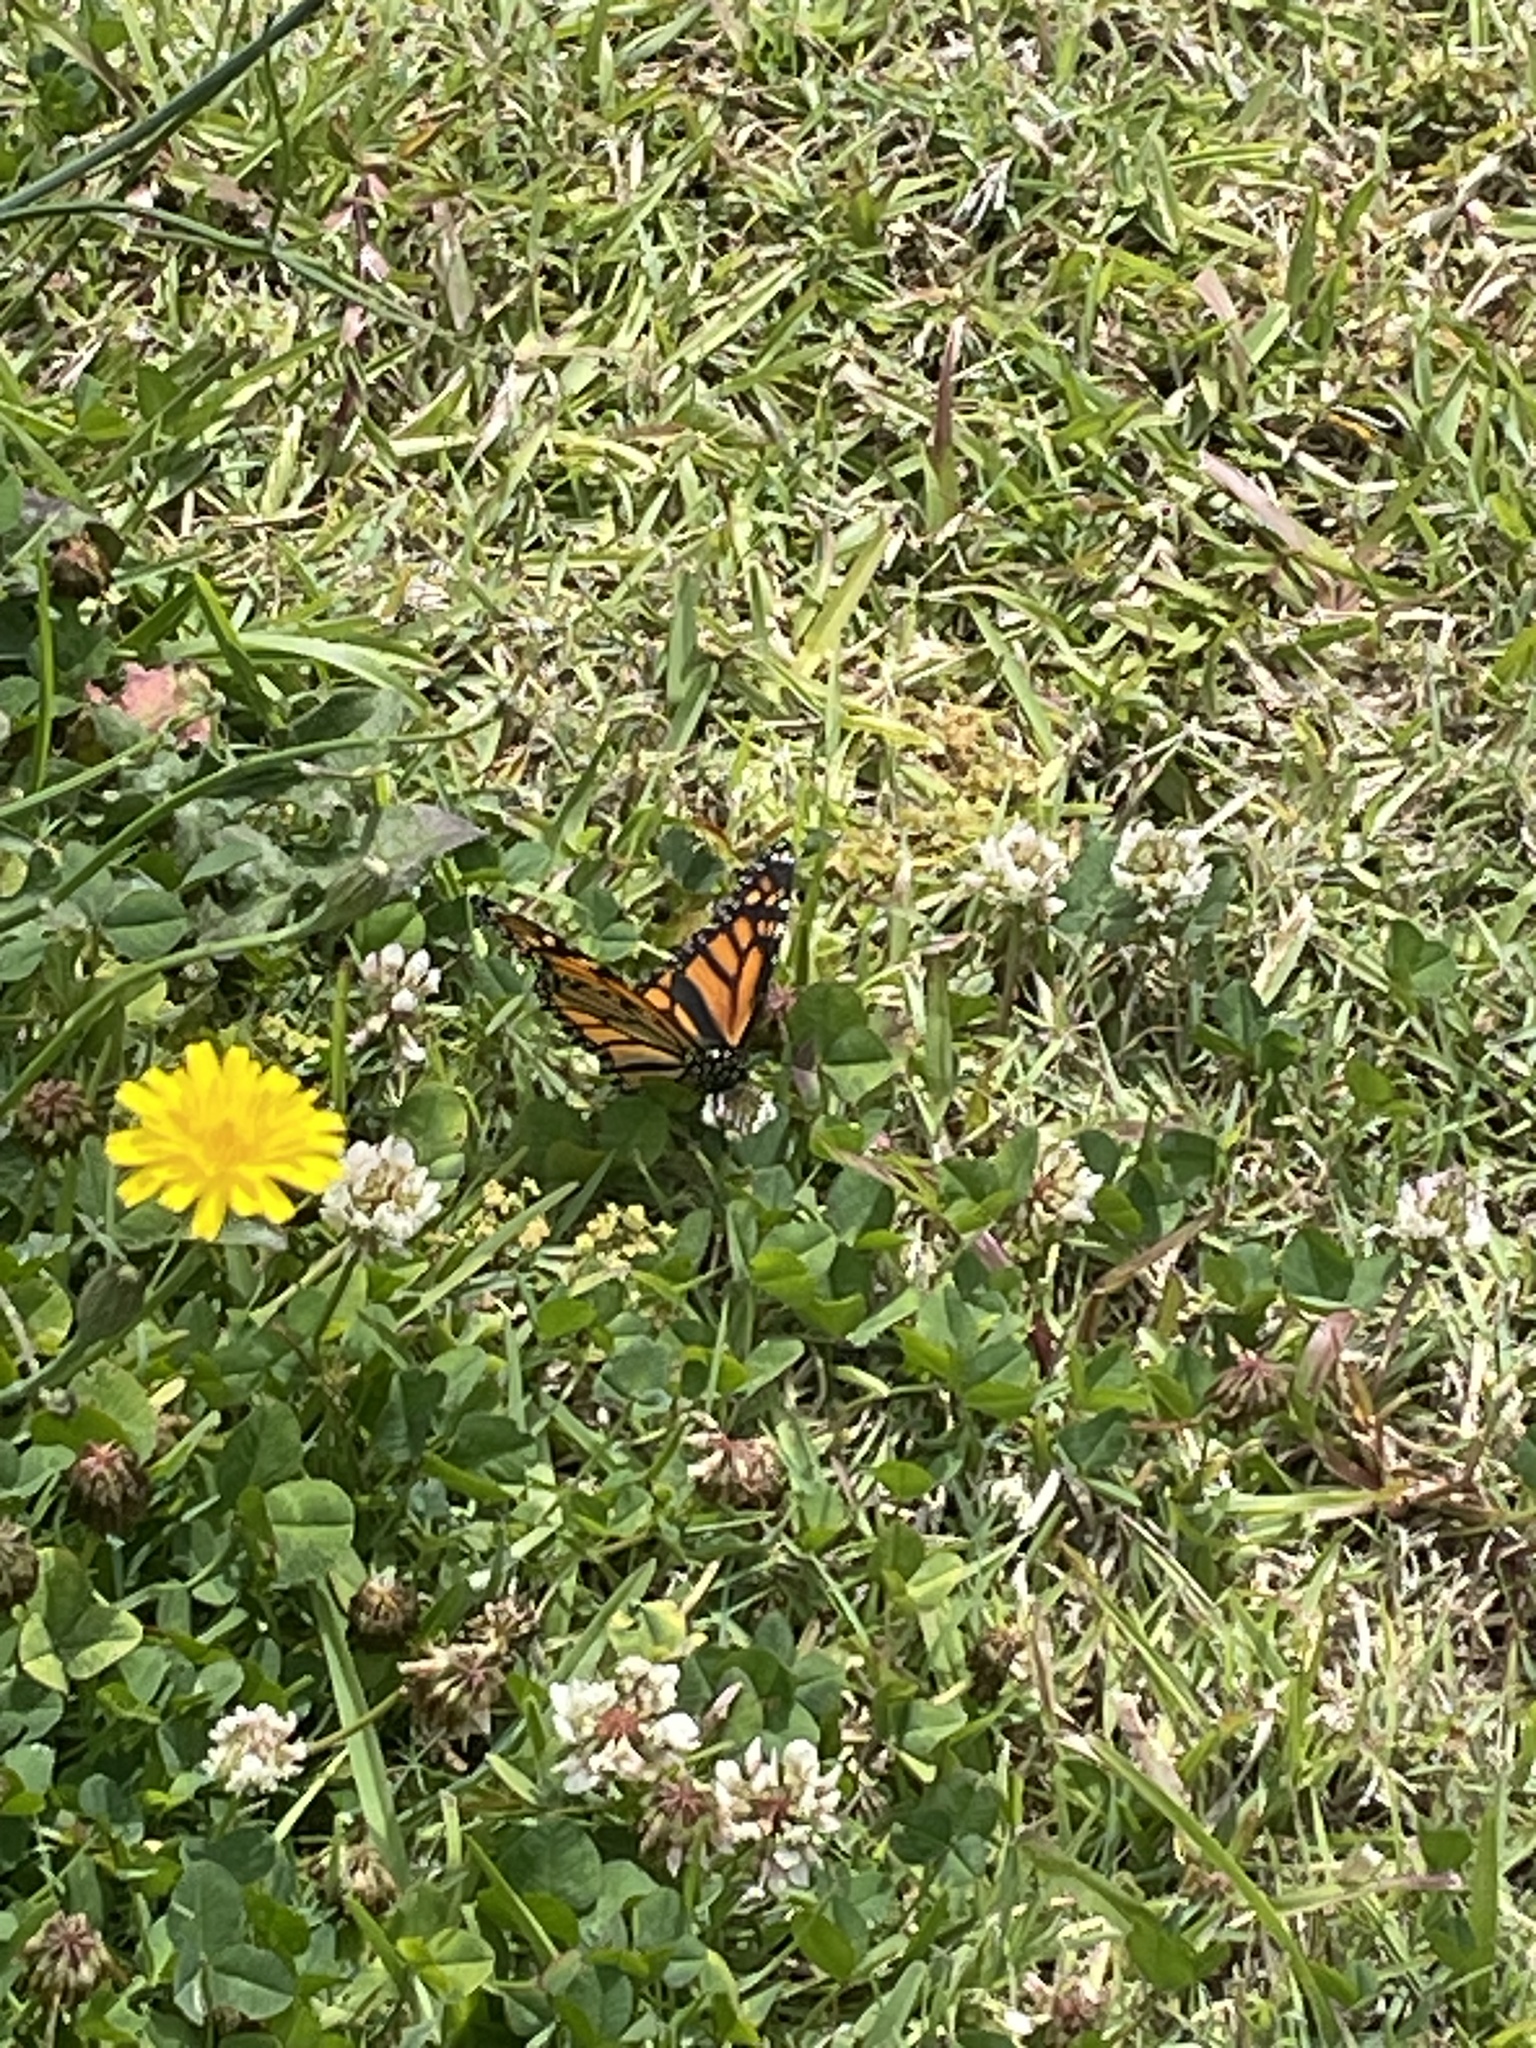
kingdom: Animalia
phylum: Arthropoda
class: Insecta
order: Lepidoptera
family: Nymphalidae
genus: Danaus
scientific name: Danaus plexippus
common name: Monarch
